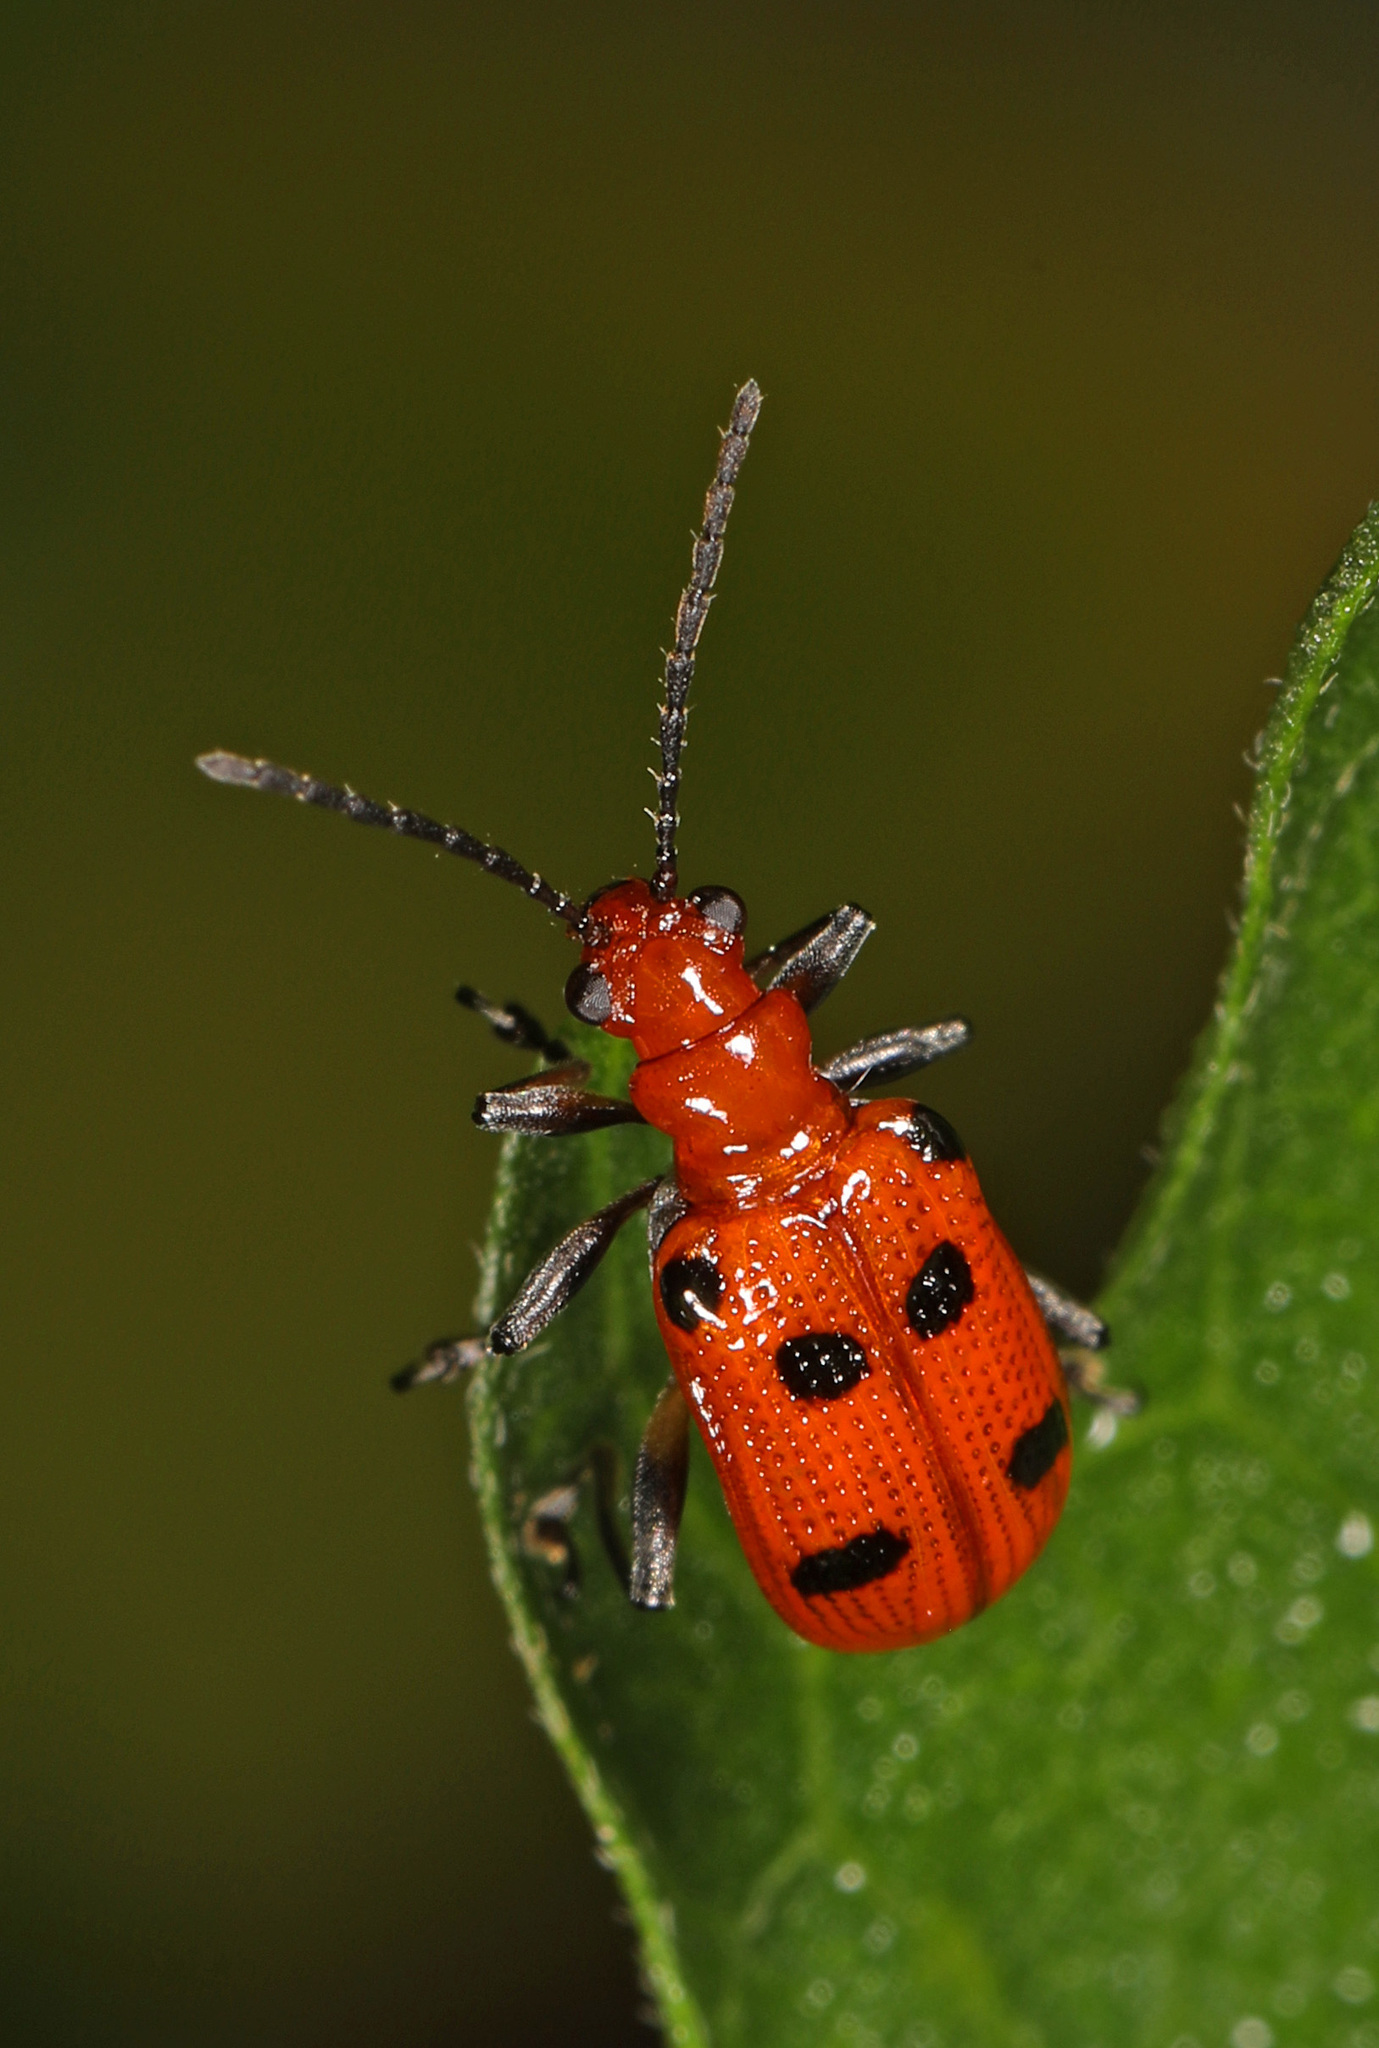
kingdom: Animalia
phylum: Arthropoda
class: Insecta
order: Coleoptera
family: Chrysomelidae
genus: Neolema
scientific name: Neolema sexpunctata
